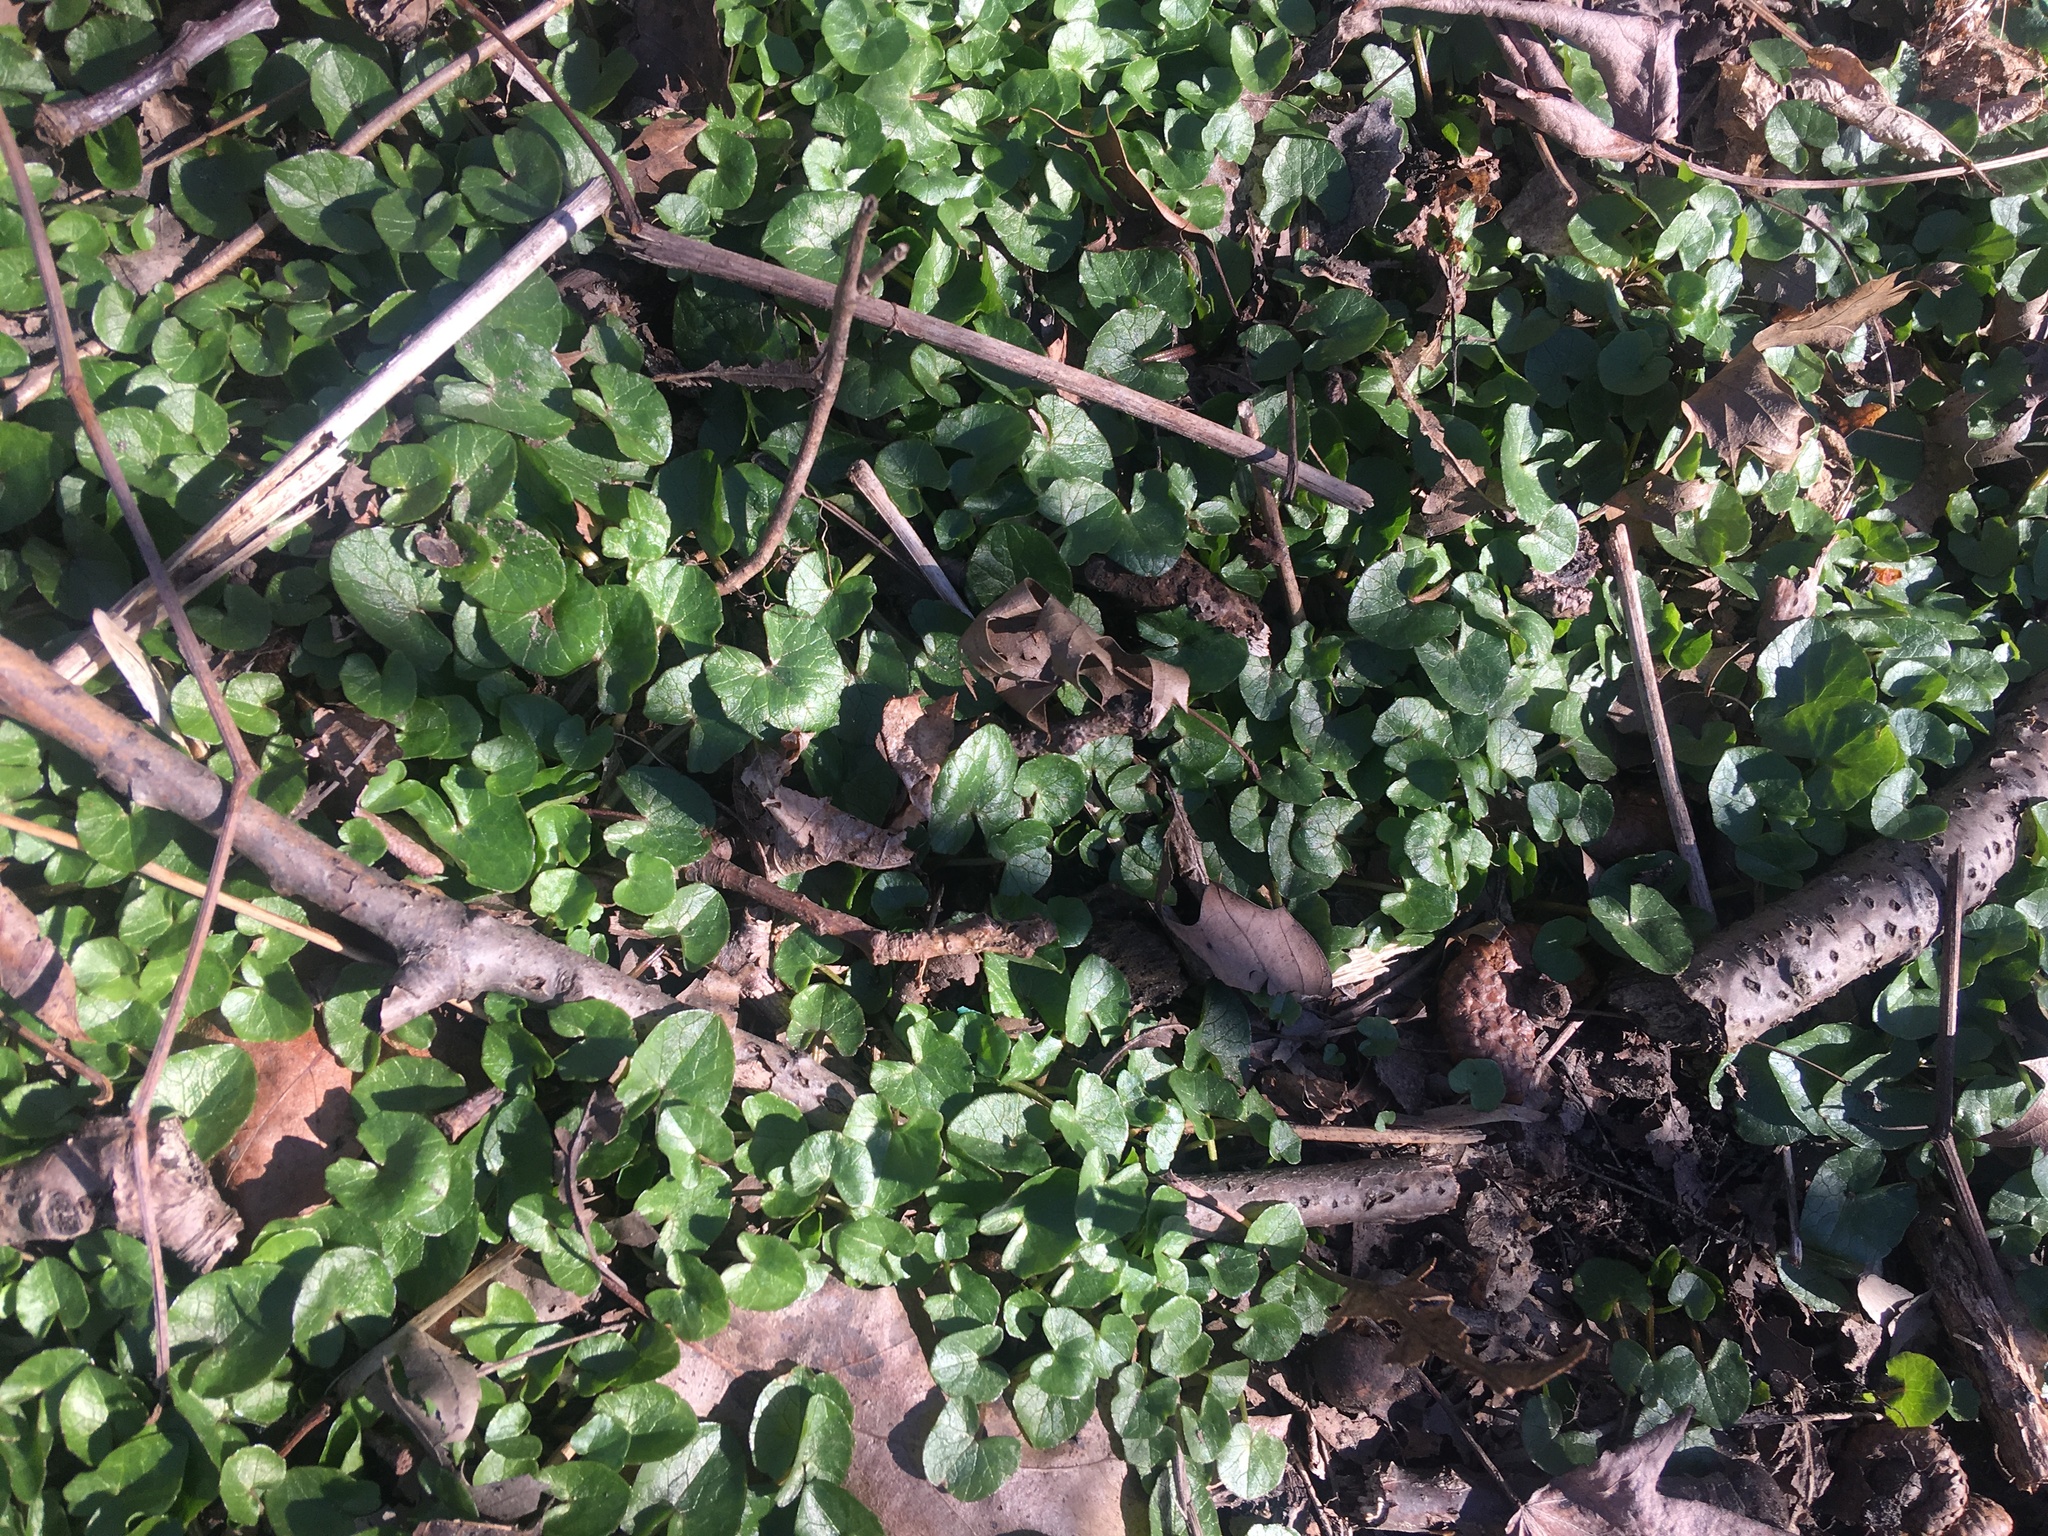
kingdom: Plantae
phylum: Tracheophyta
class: Magnoliopsida
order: Ranunculales
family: Ranunculaceae
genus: Ficaria
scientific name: Ficaria verna
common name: Lesser celandine
